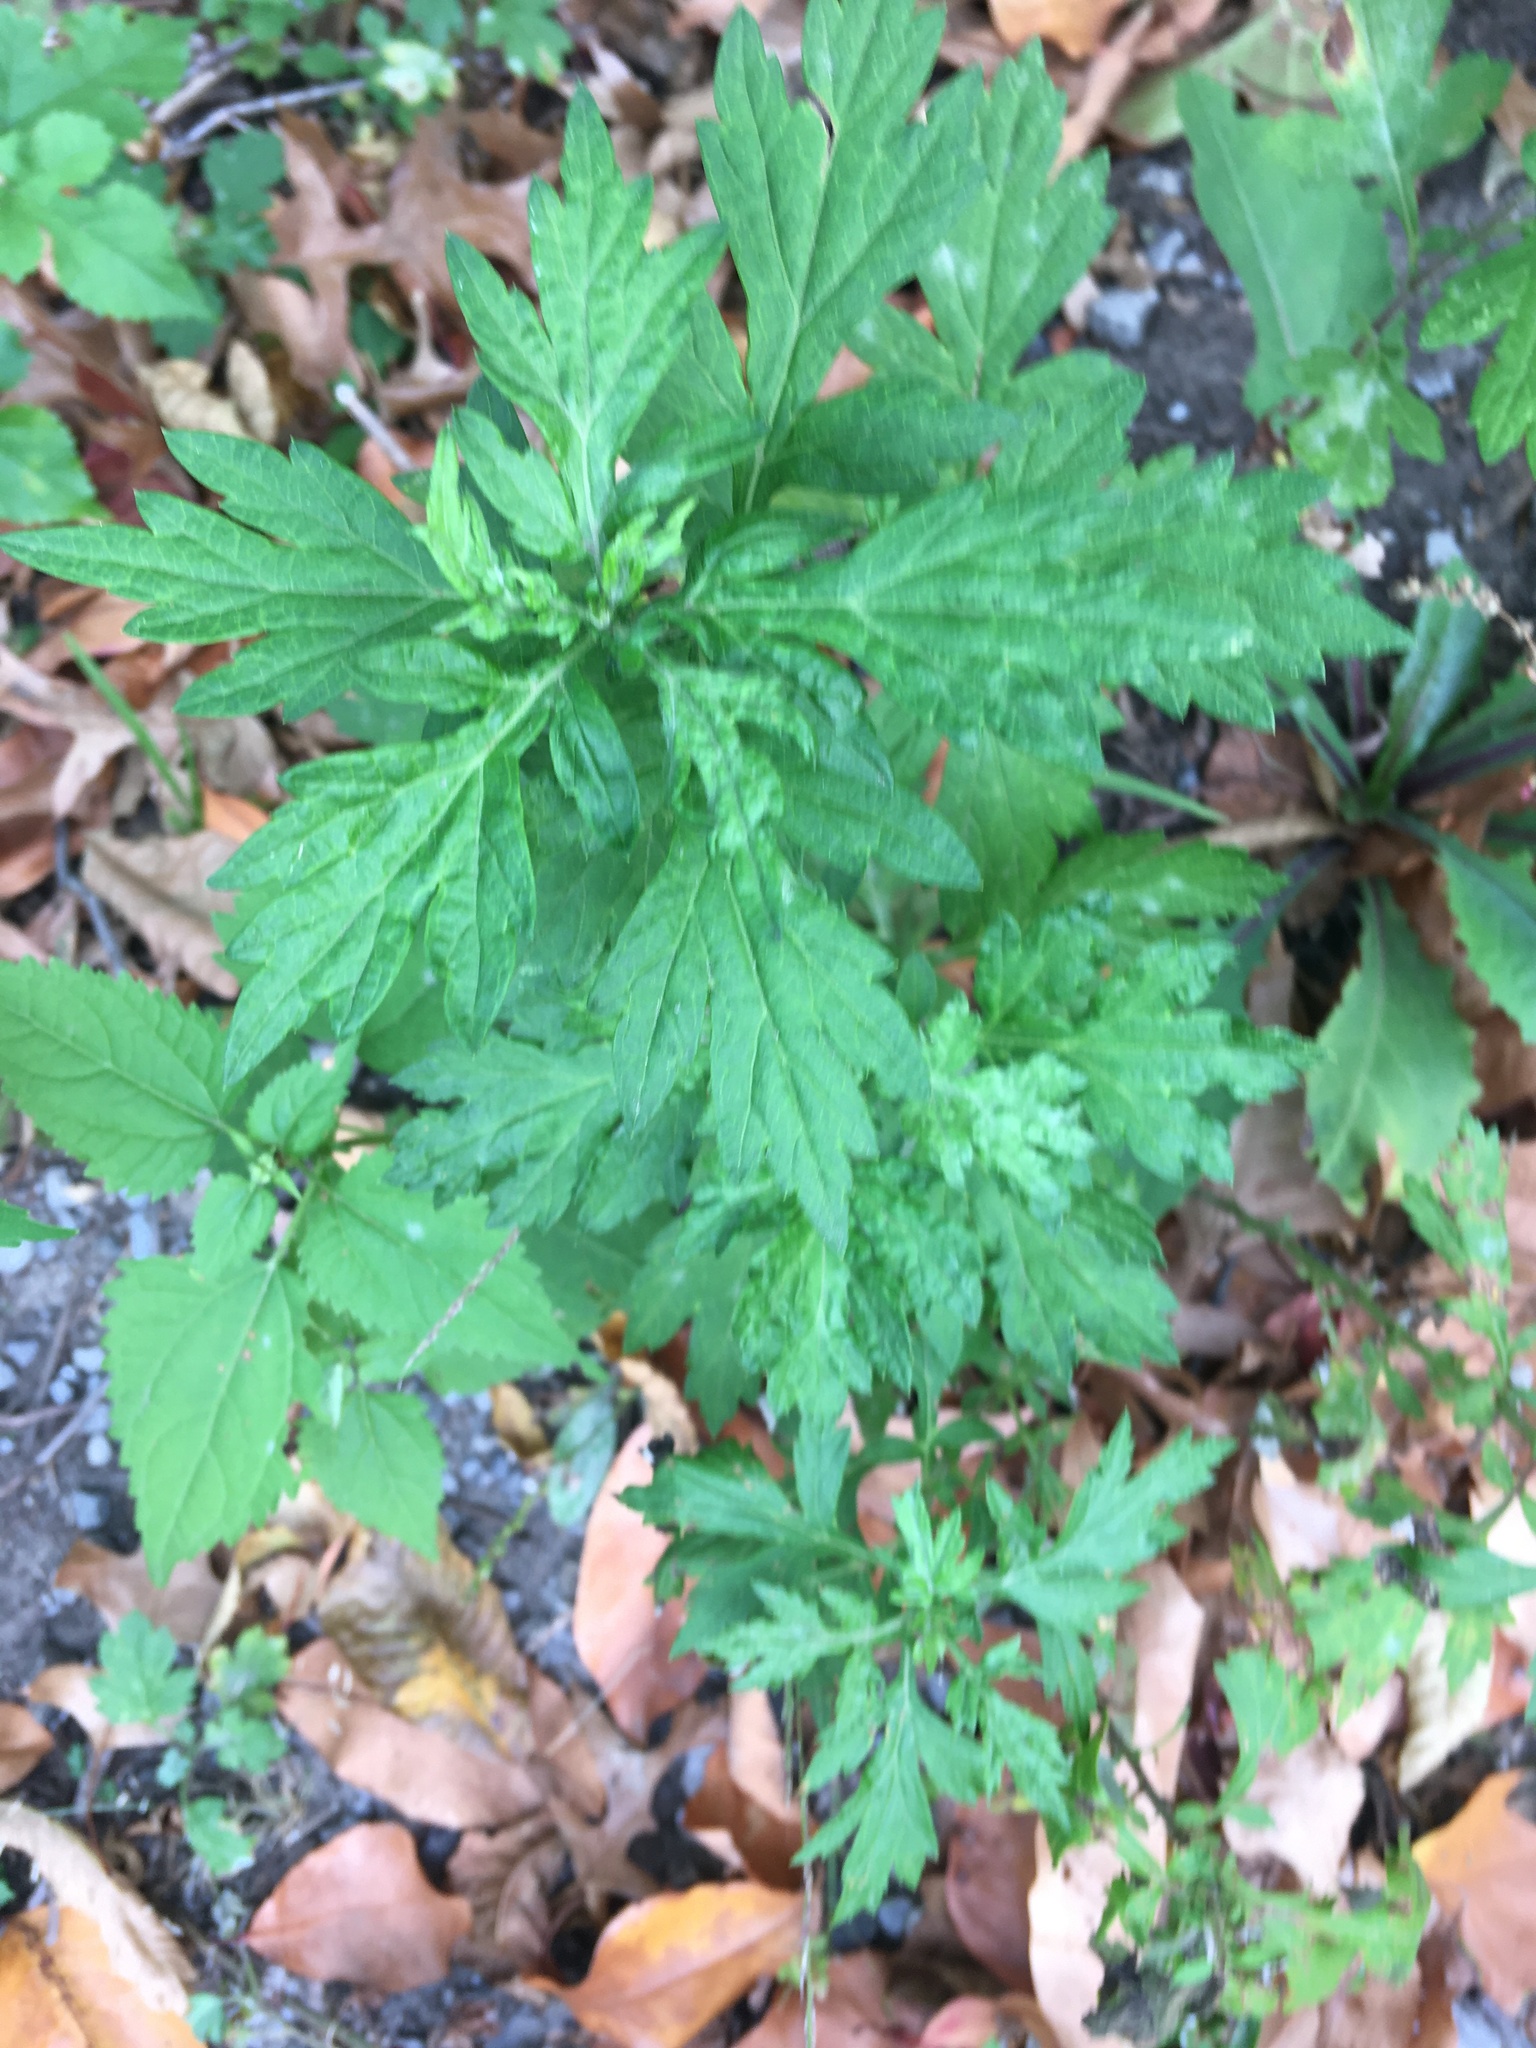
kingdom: Plantae
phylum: Tracheophyta
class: Magnoliopsida
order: Asterales
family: Asteraceae
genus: Artemisia
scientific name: Artemisia vulgaris
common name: Mugwort
